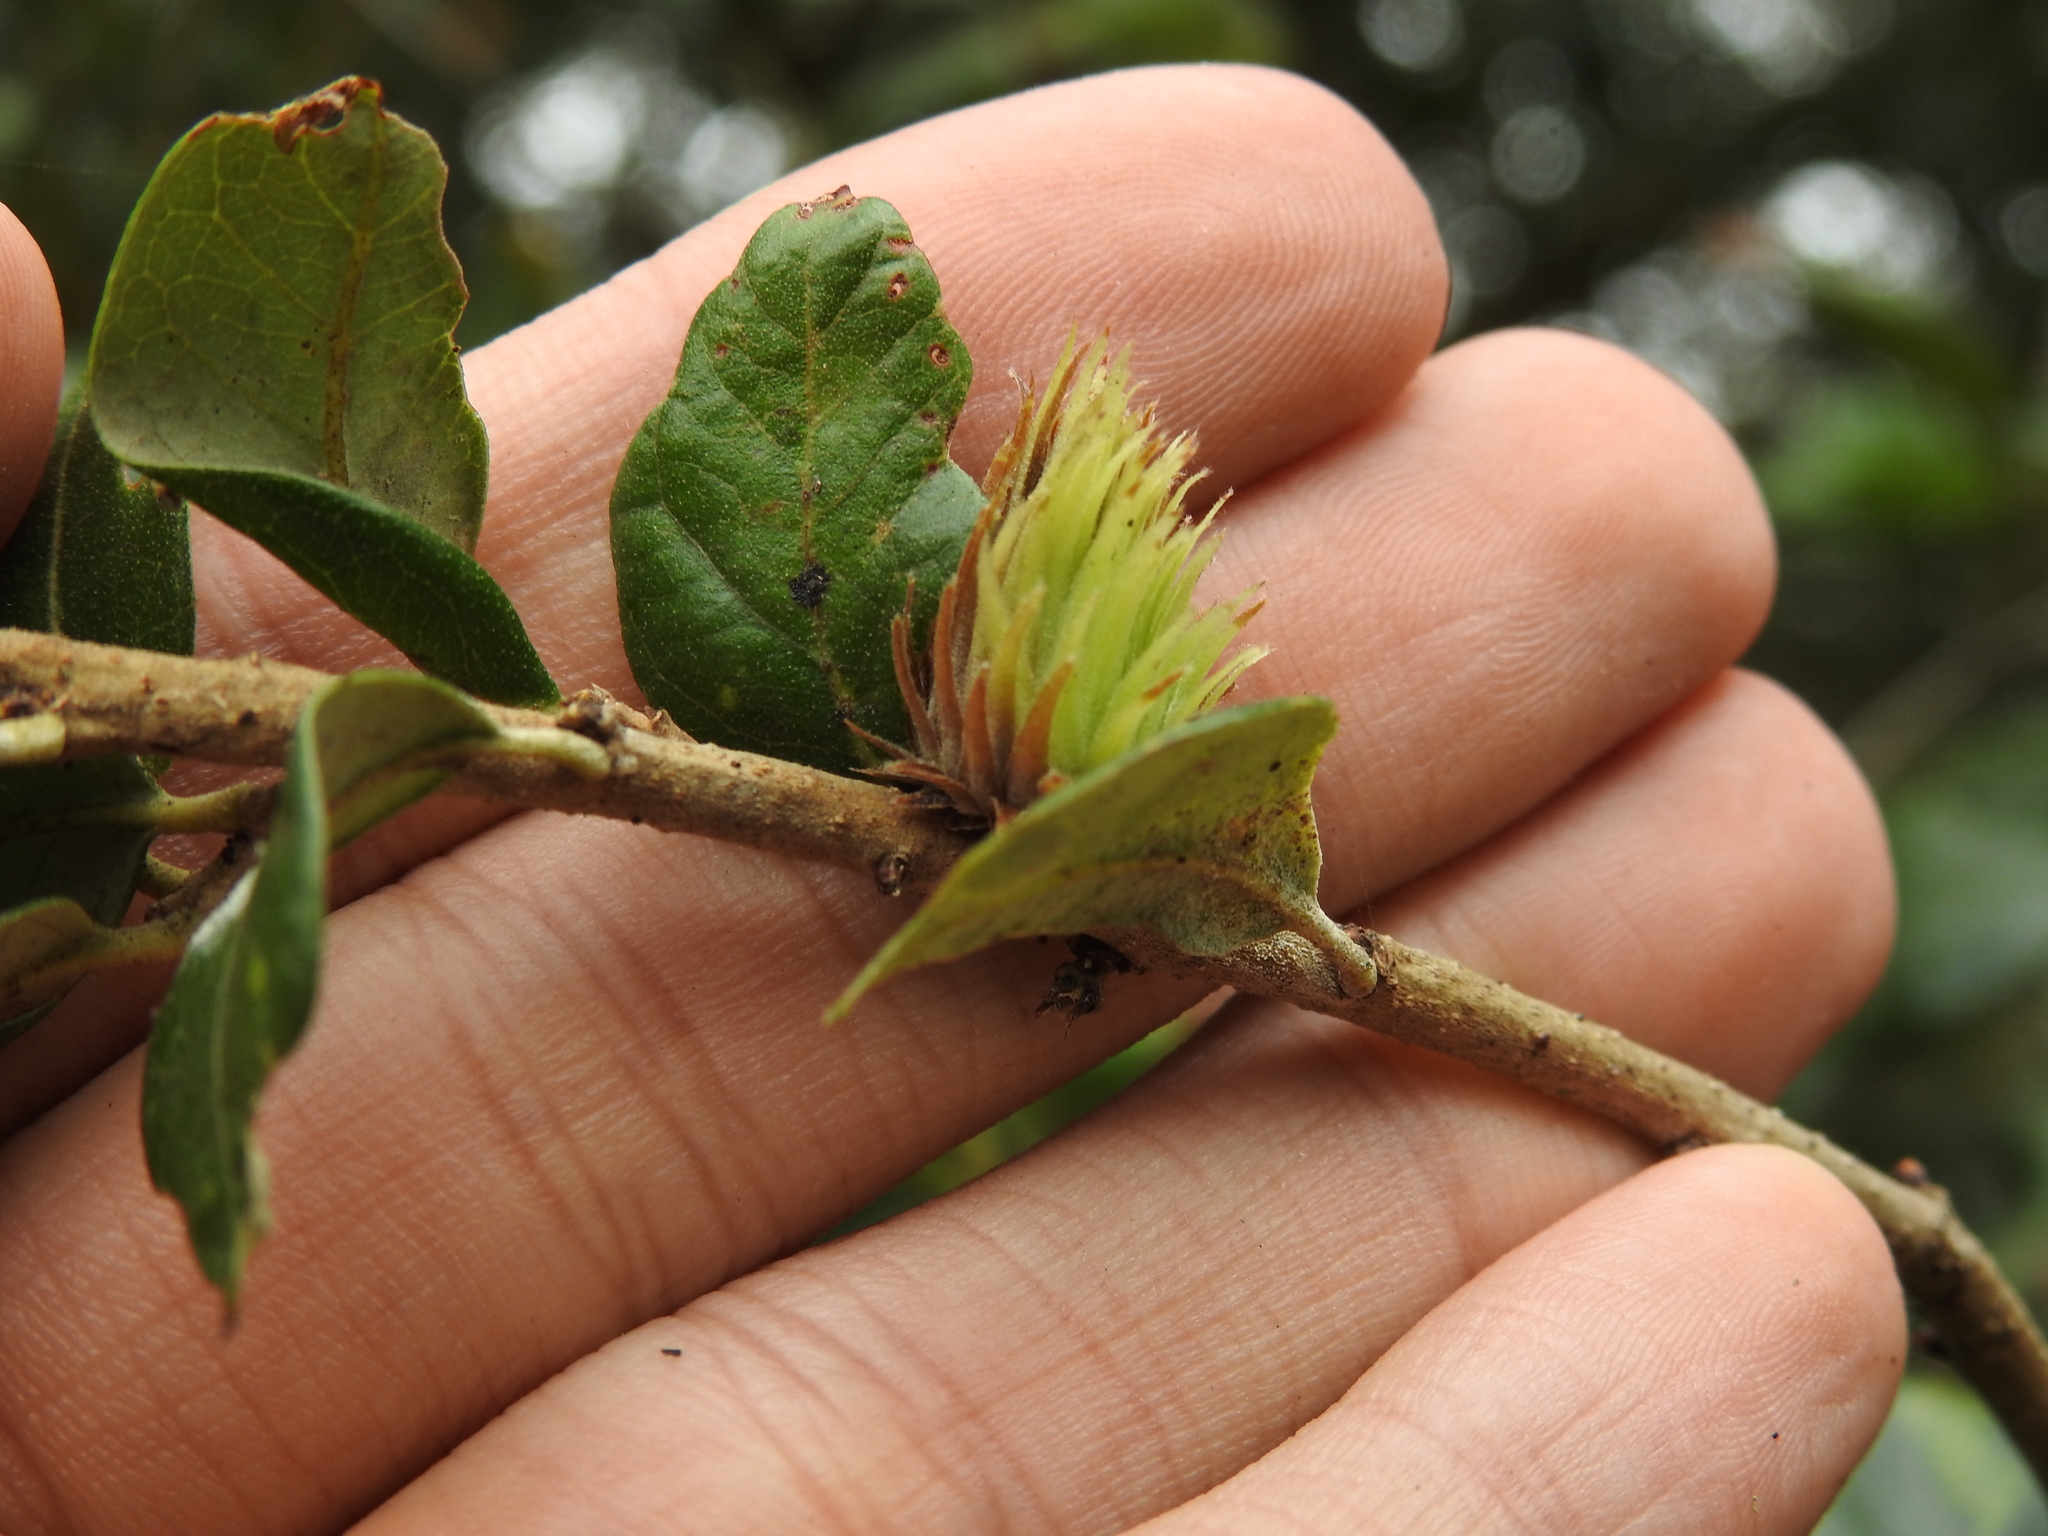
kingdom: Animalia
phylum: Arthropoda
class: Insecta
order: Hymenoptera
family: Cynipidae
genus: Andricus
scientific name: Andricus quercusfoliatus
